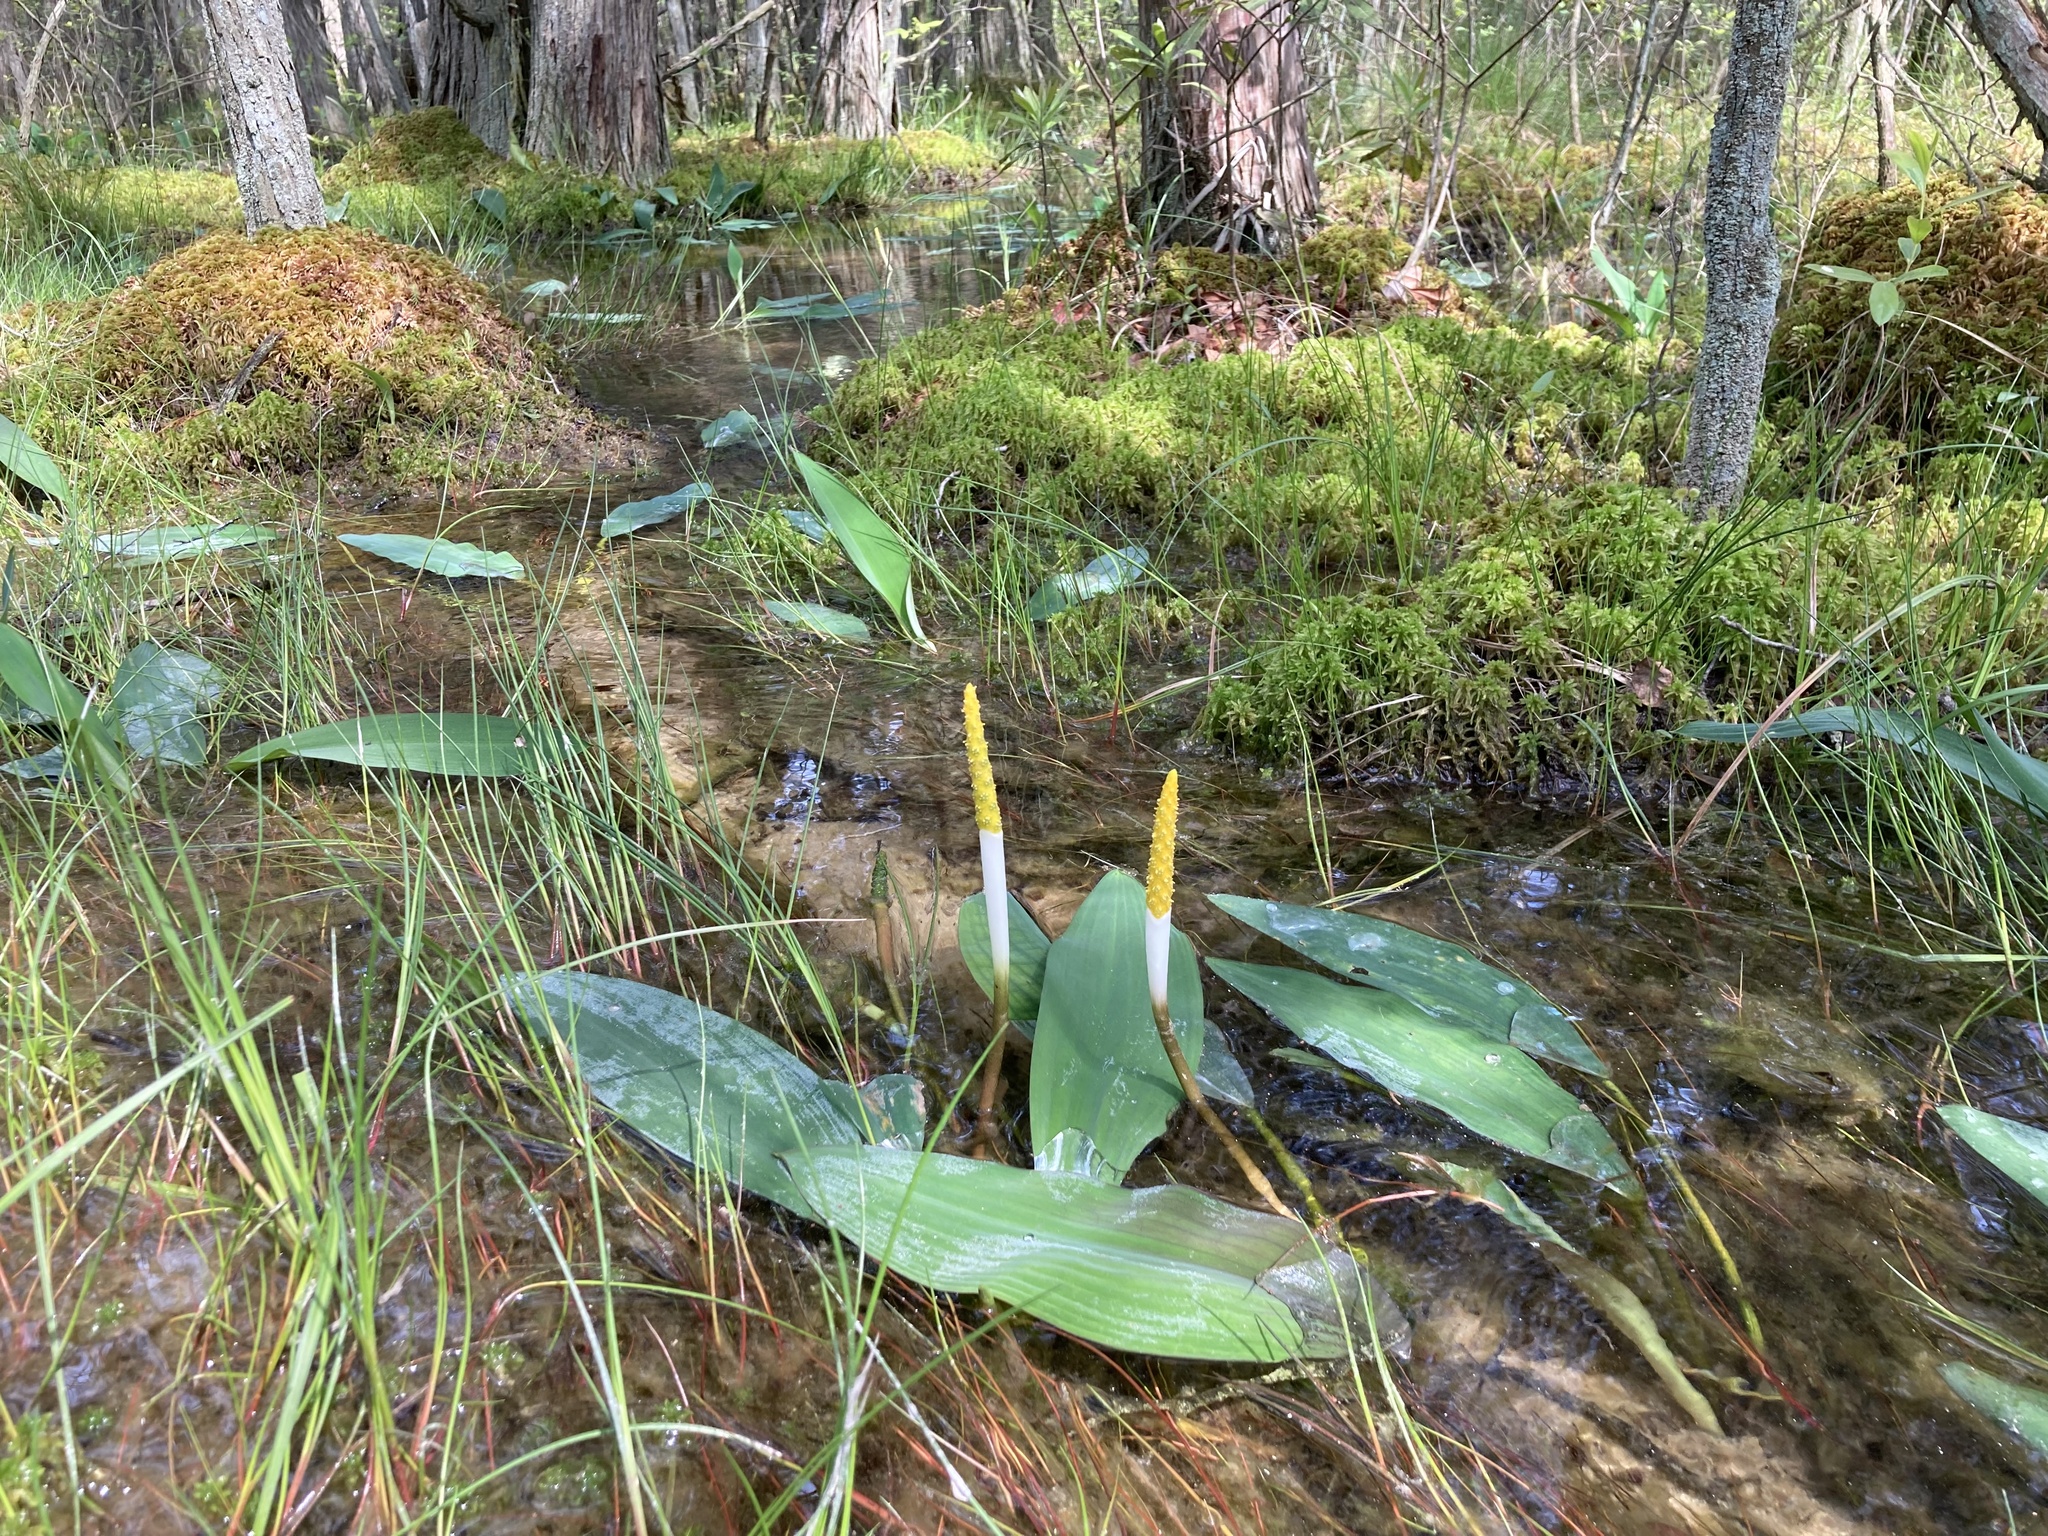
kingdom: Plantae
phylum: Tracheophyta
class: Liliopsida
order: Alismatales
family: Araceae
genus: Orontium
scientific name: Orontium aquaticum
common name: Golden-club
